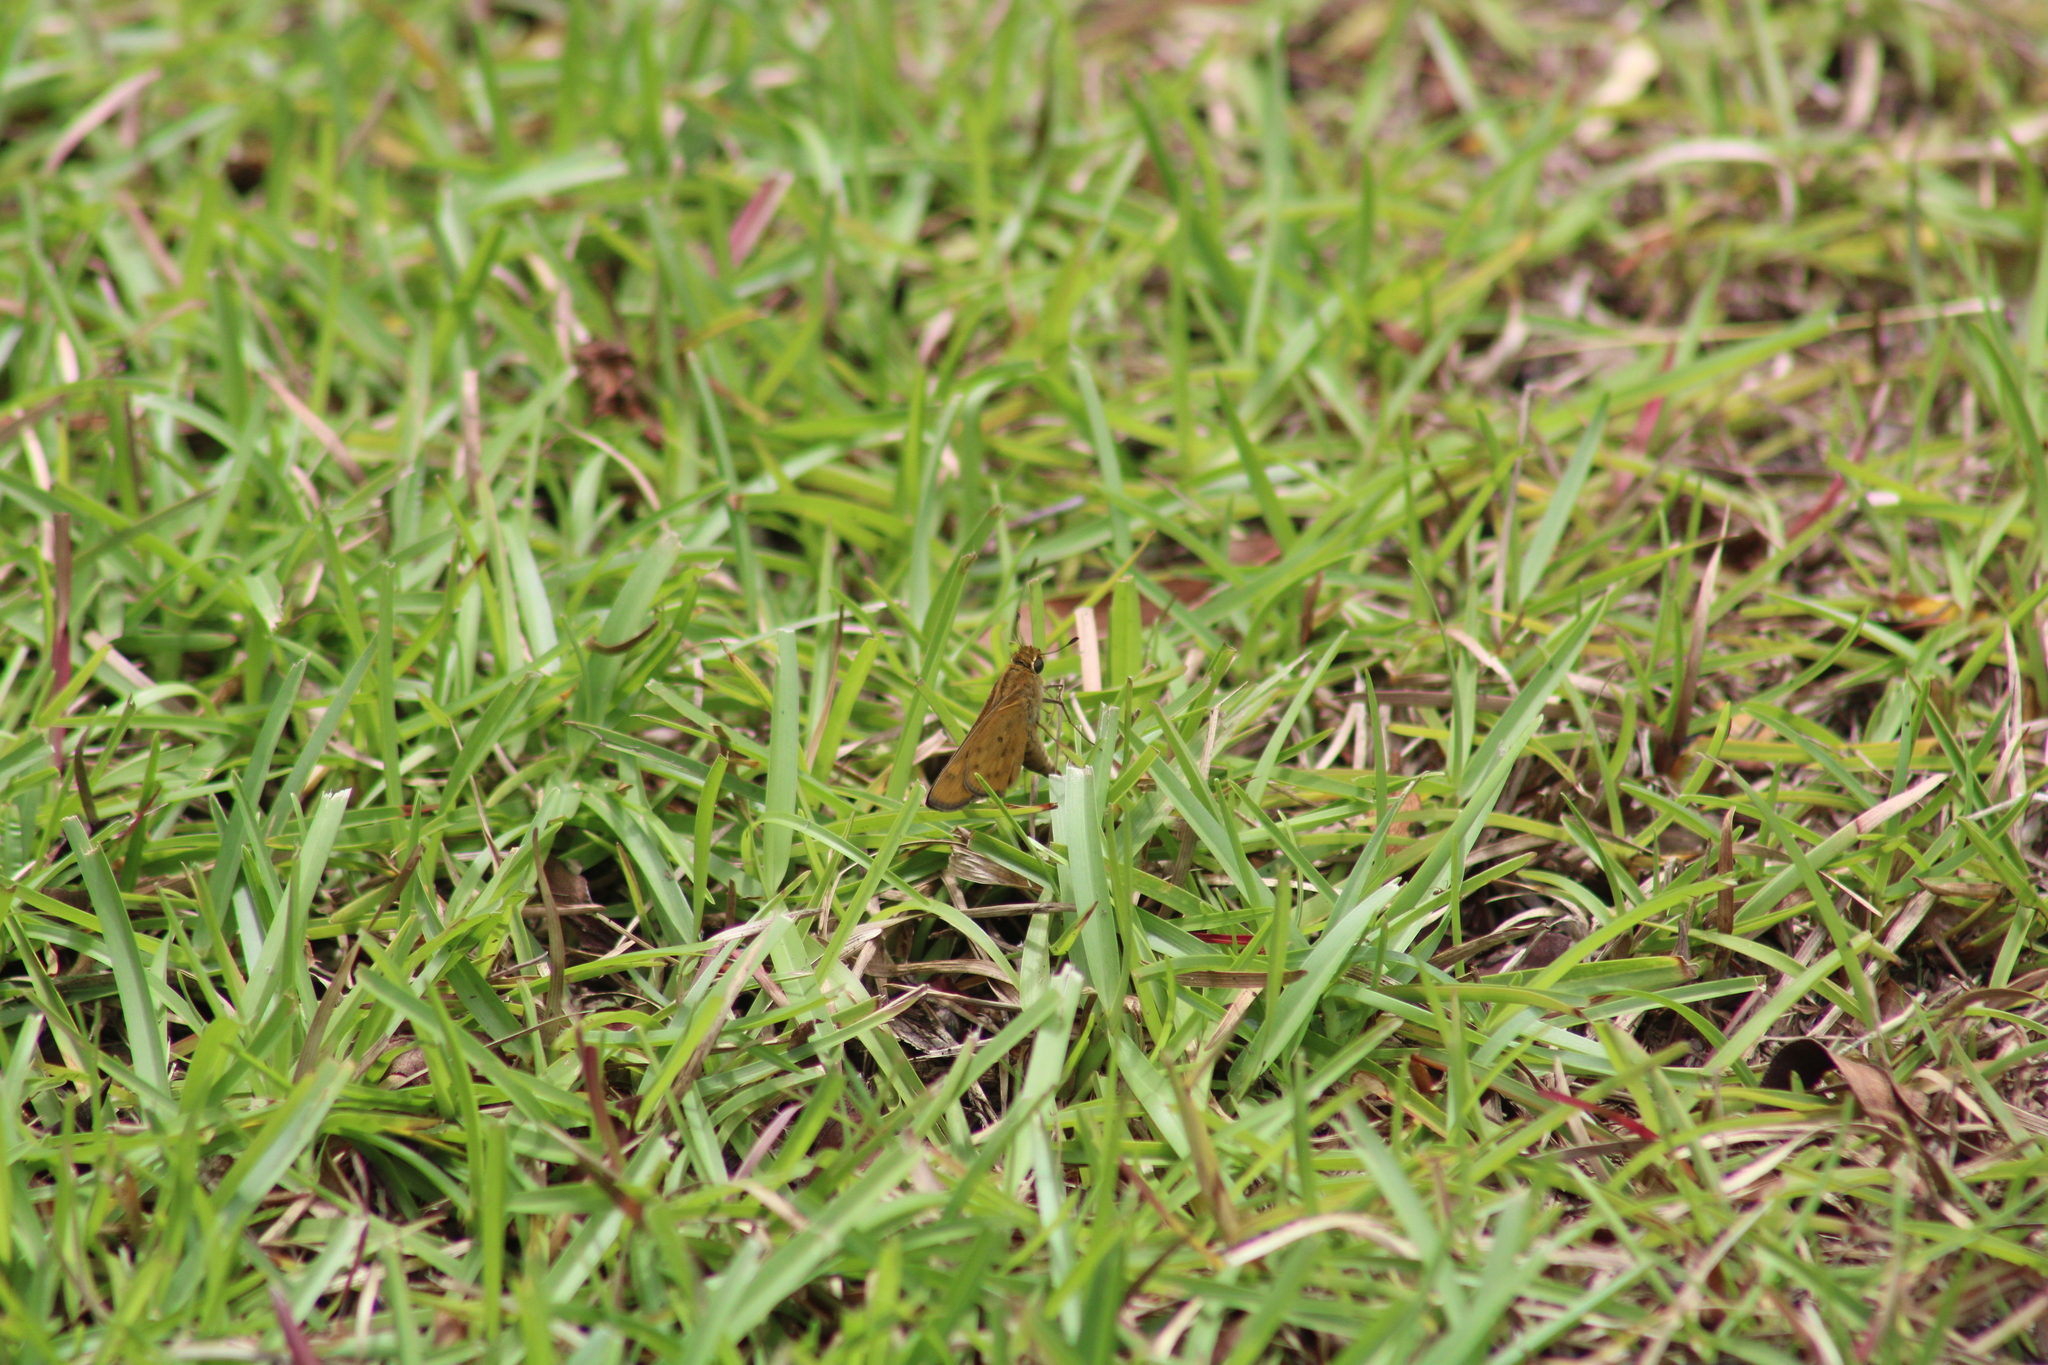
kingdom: Animalia
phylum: Arthropoda
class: Insecta
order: Lepidoptera
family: Hesperiidae
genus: Hylephila
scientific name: Hylephila phyleus
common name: Fiery skipper
